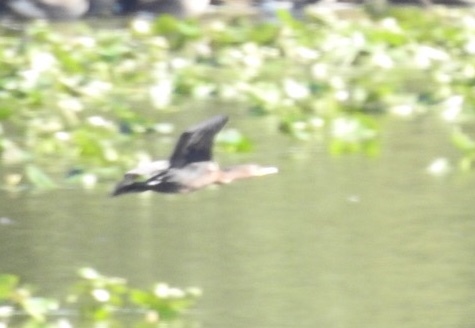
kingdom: Animalia
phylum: Chordata
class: Aves
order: Suliformes
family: Phalacrocoracidae
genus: Phalacrocorax
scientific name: Phalacrocorax auritus
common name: Double-crested cormorant
